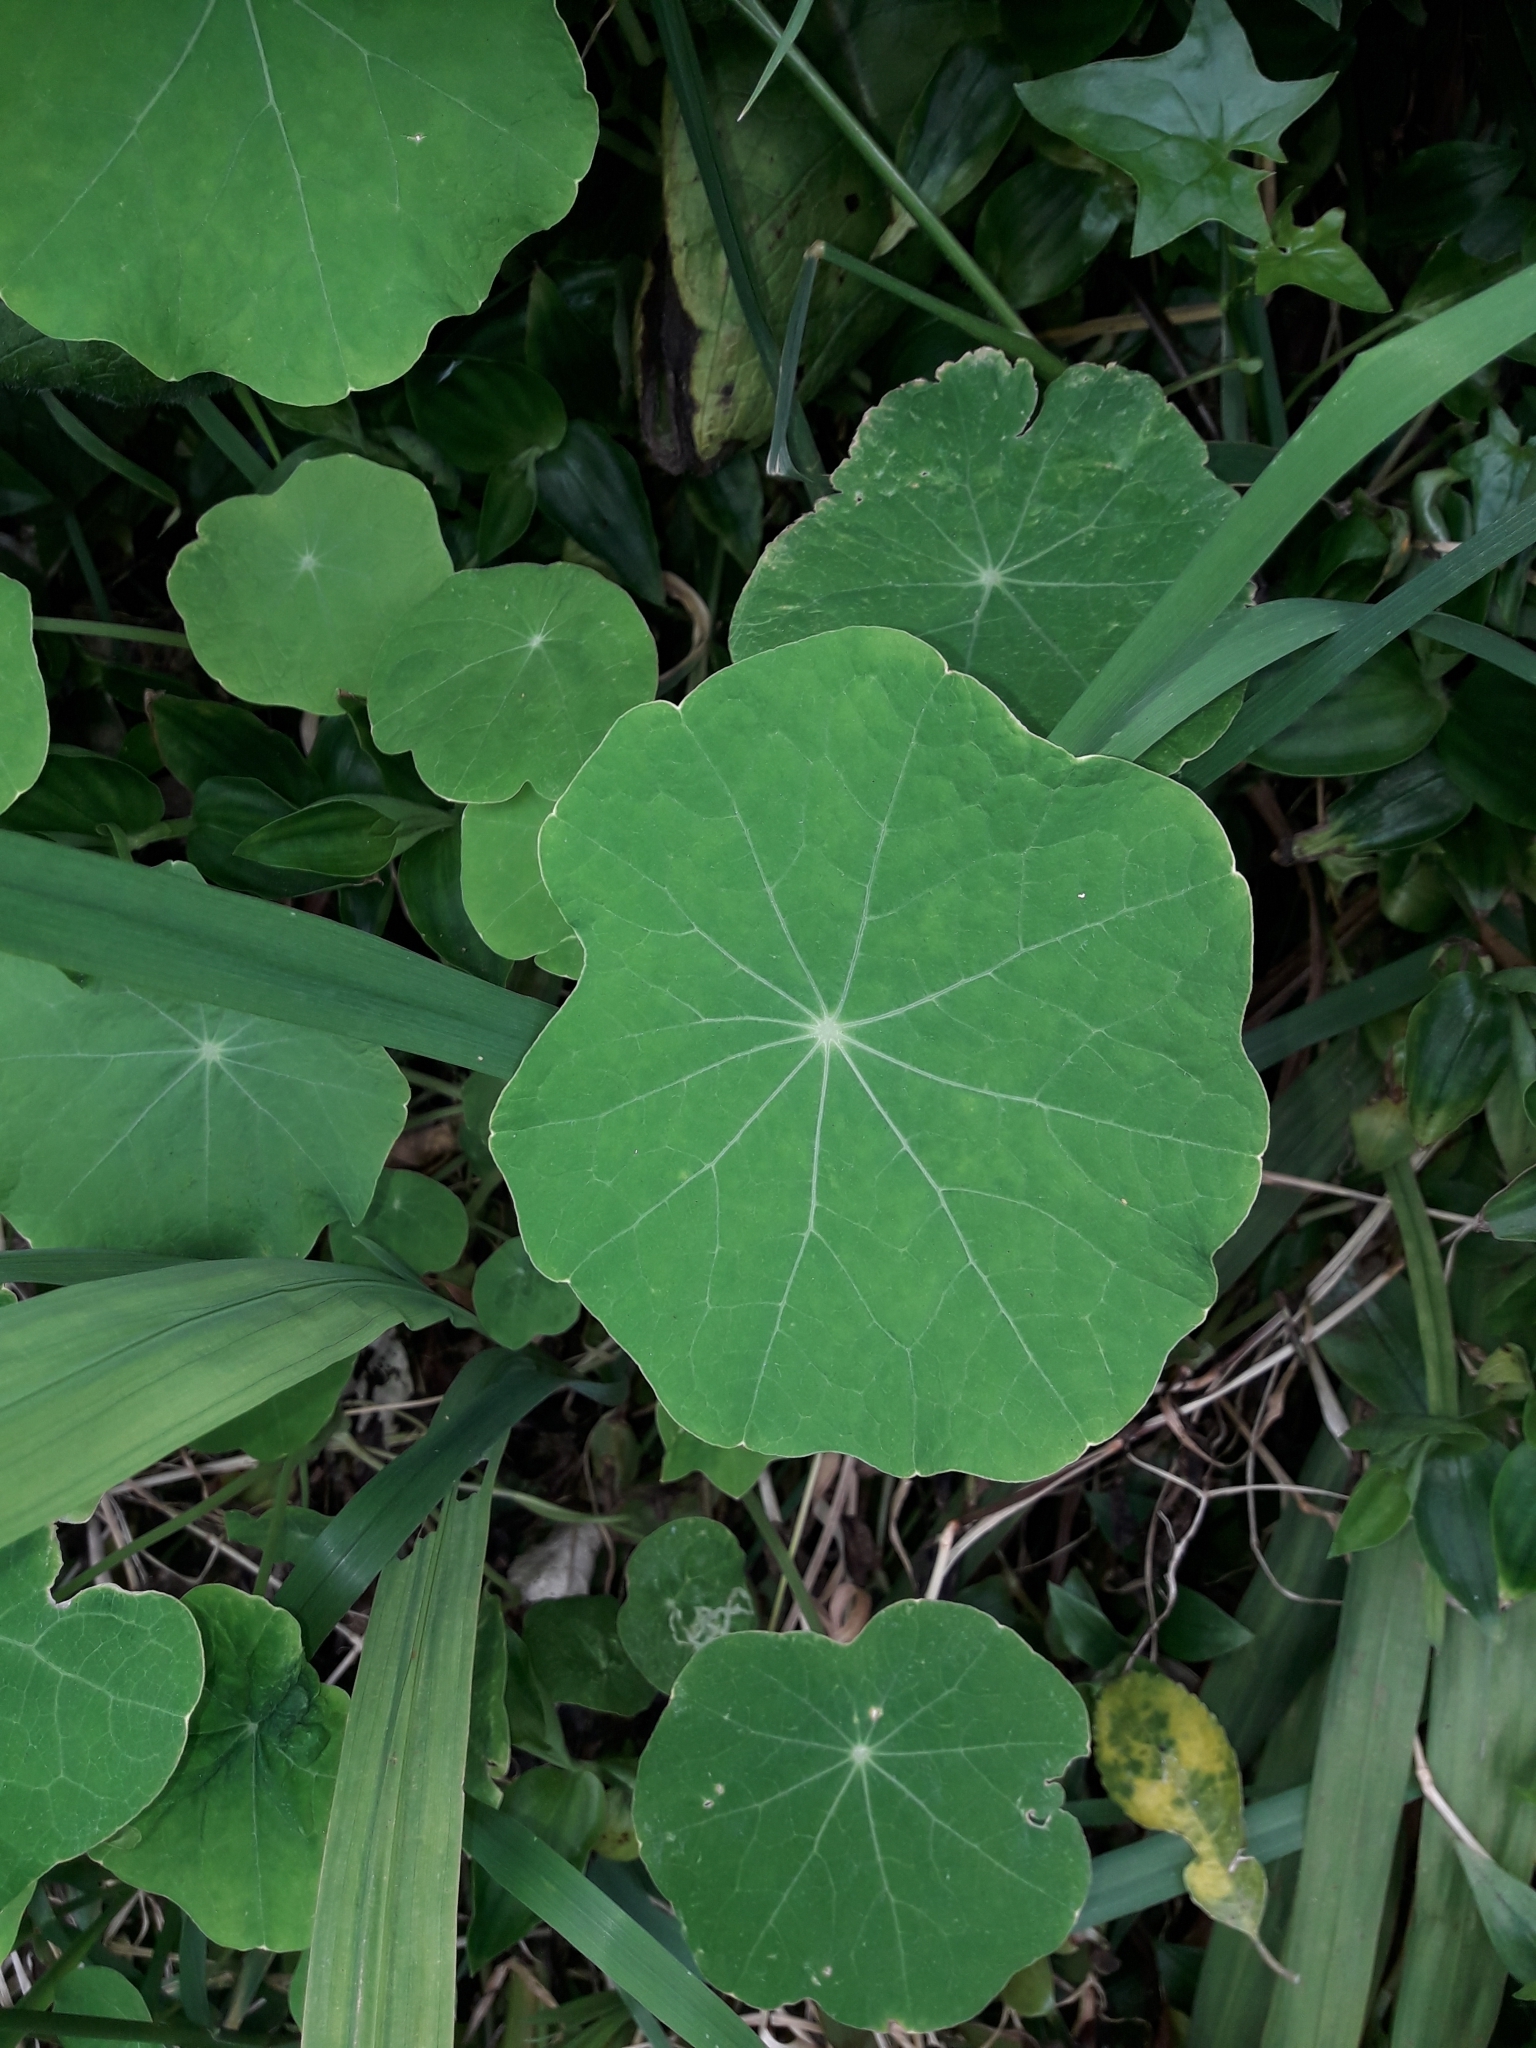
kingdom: Plantae
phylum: Tracheophyta
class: Magnoliopsida
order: Brassicales
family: Tropaeolaceae
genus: Tropaeolum
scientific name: Tropaeolum majus
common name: Nasturtium
